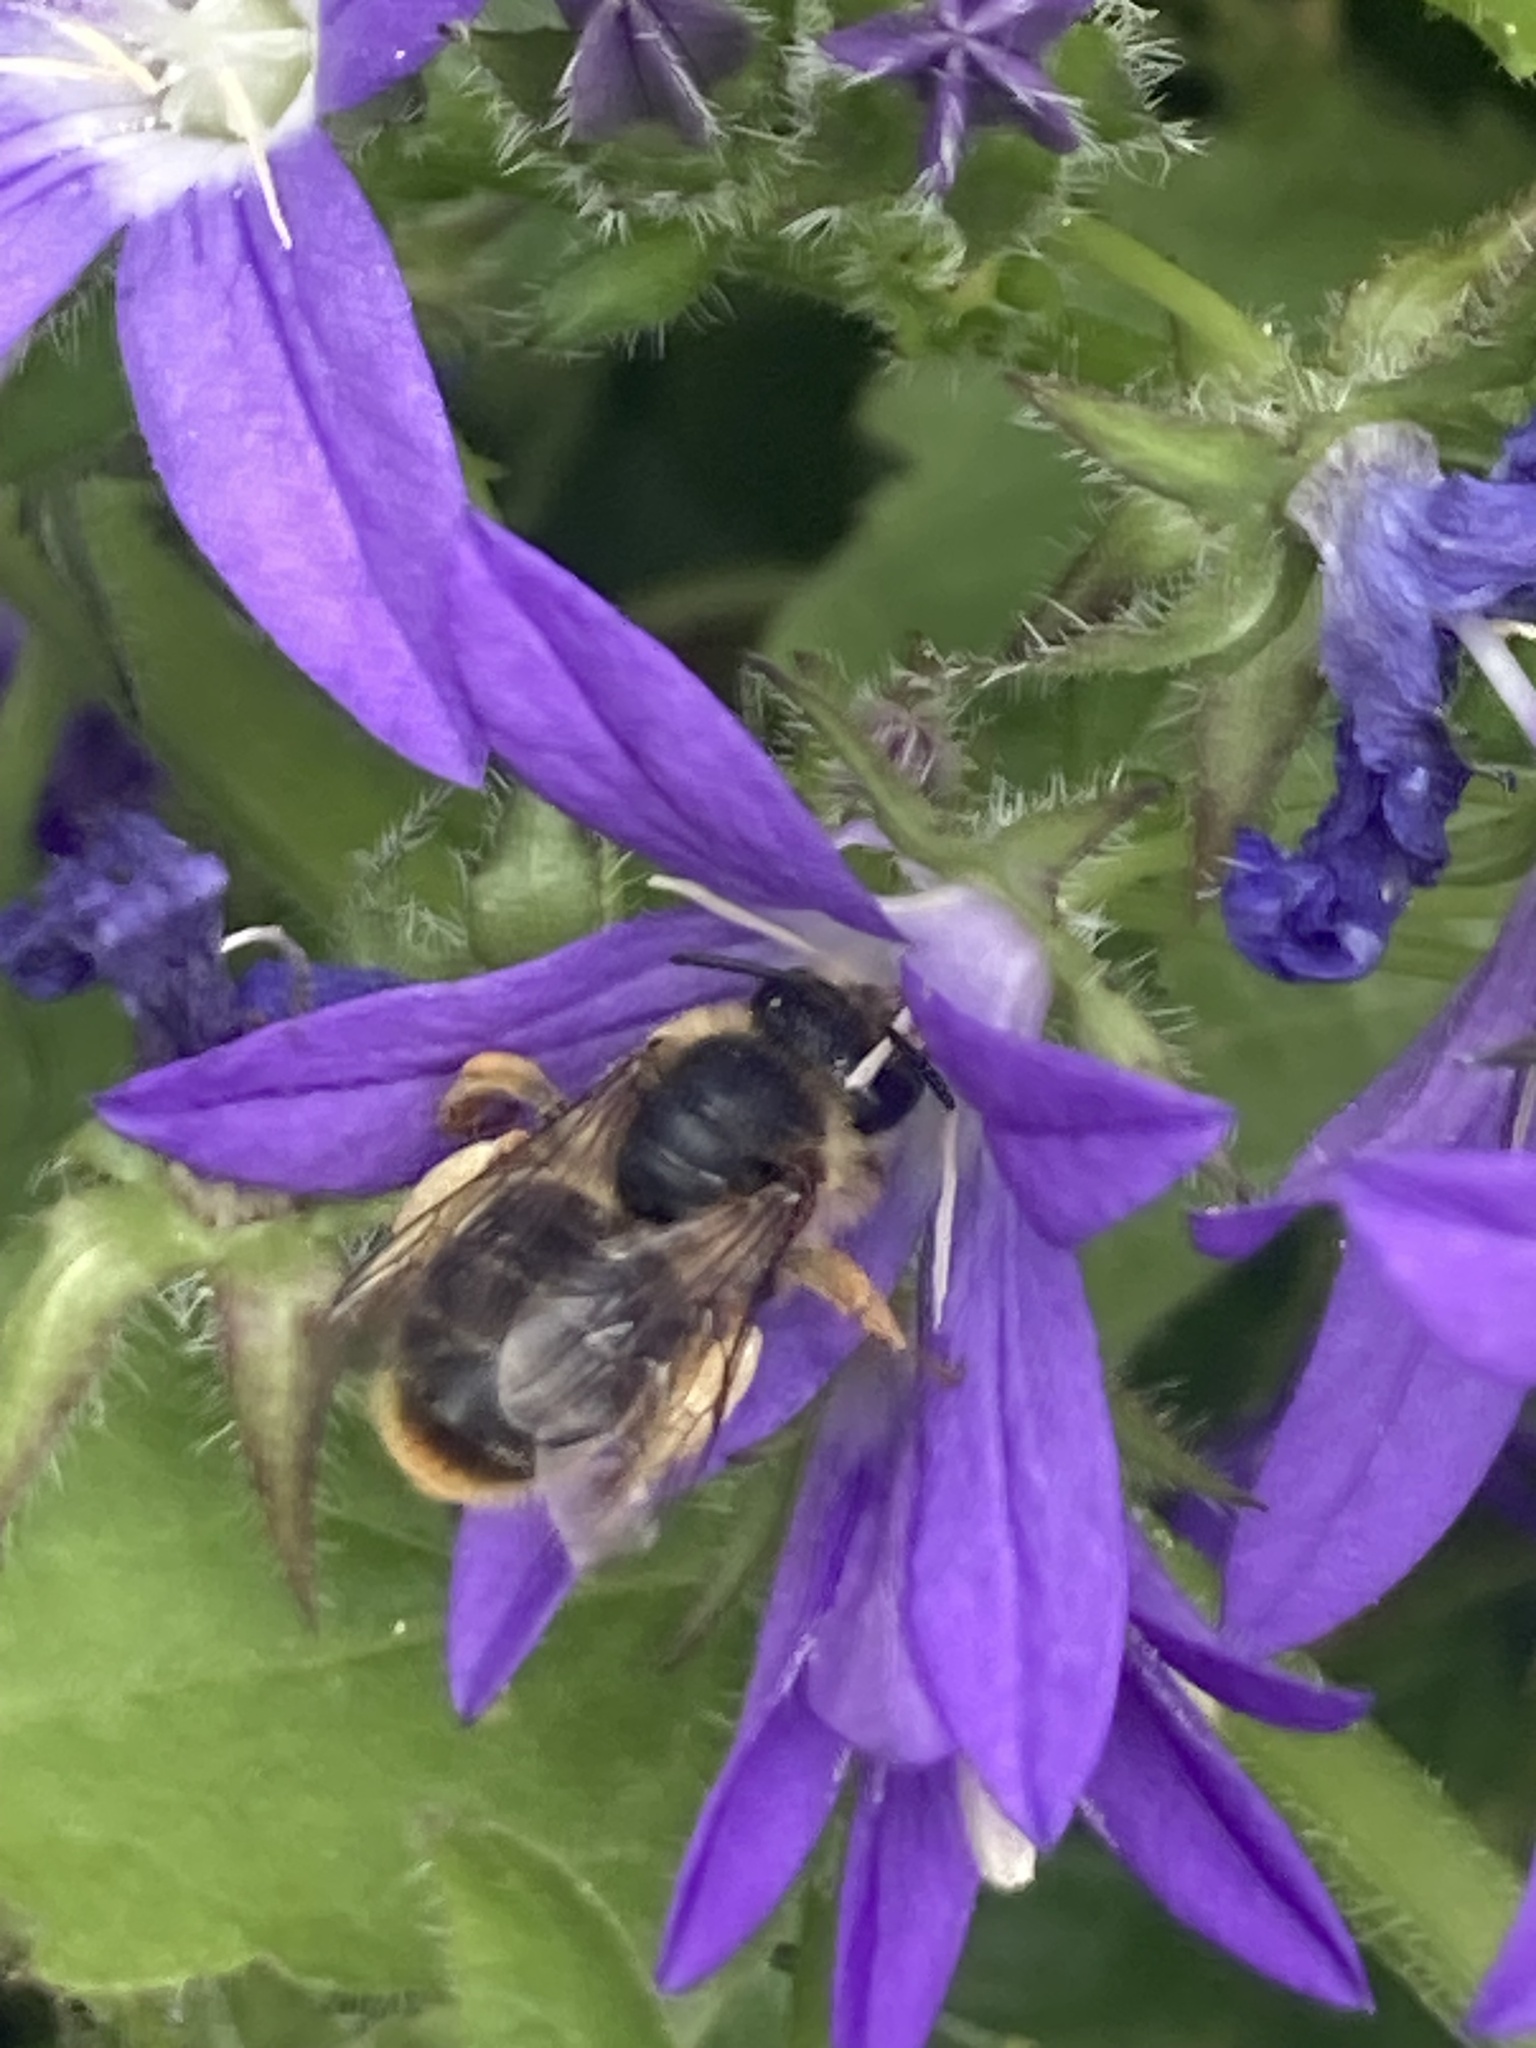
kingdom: Animalia
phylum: Arthropoda
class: Insecta
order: Hymenoptera
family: Melittidae
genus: Melitta
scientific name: Melitta haemorrhoidalis
